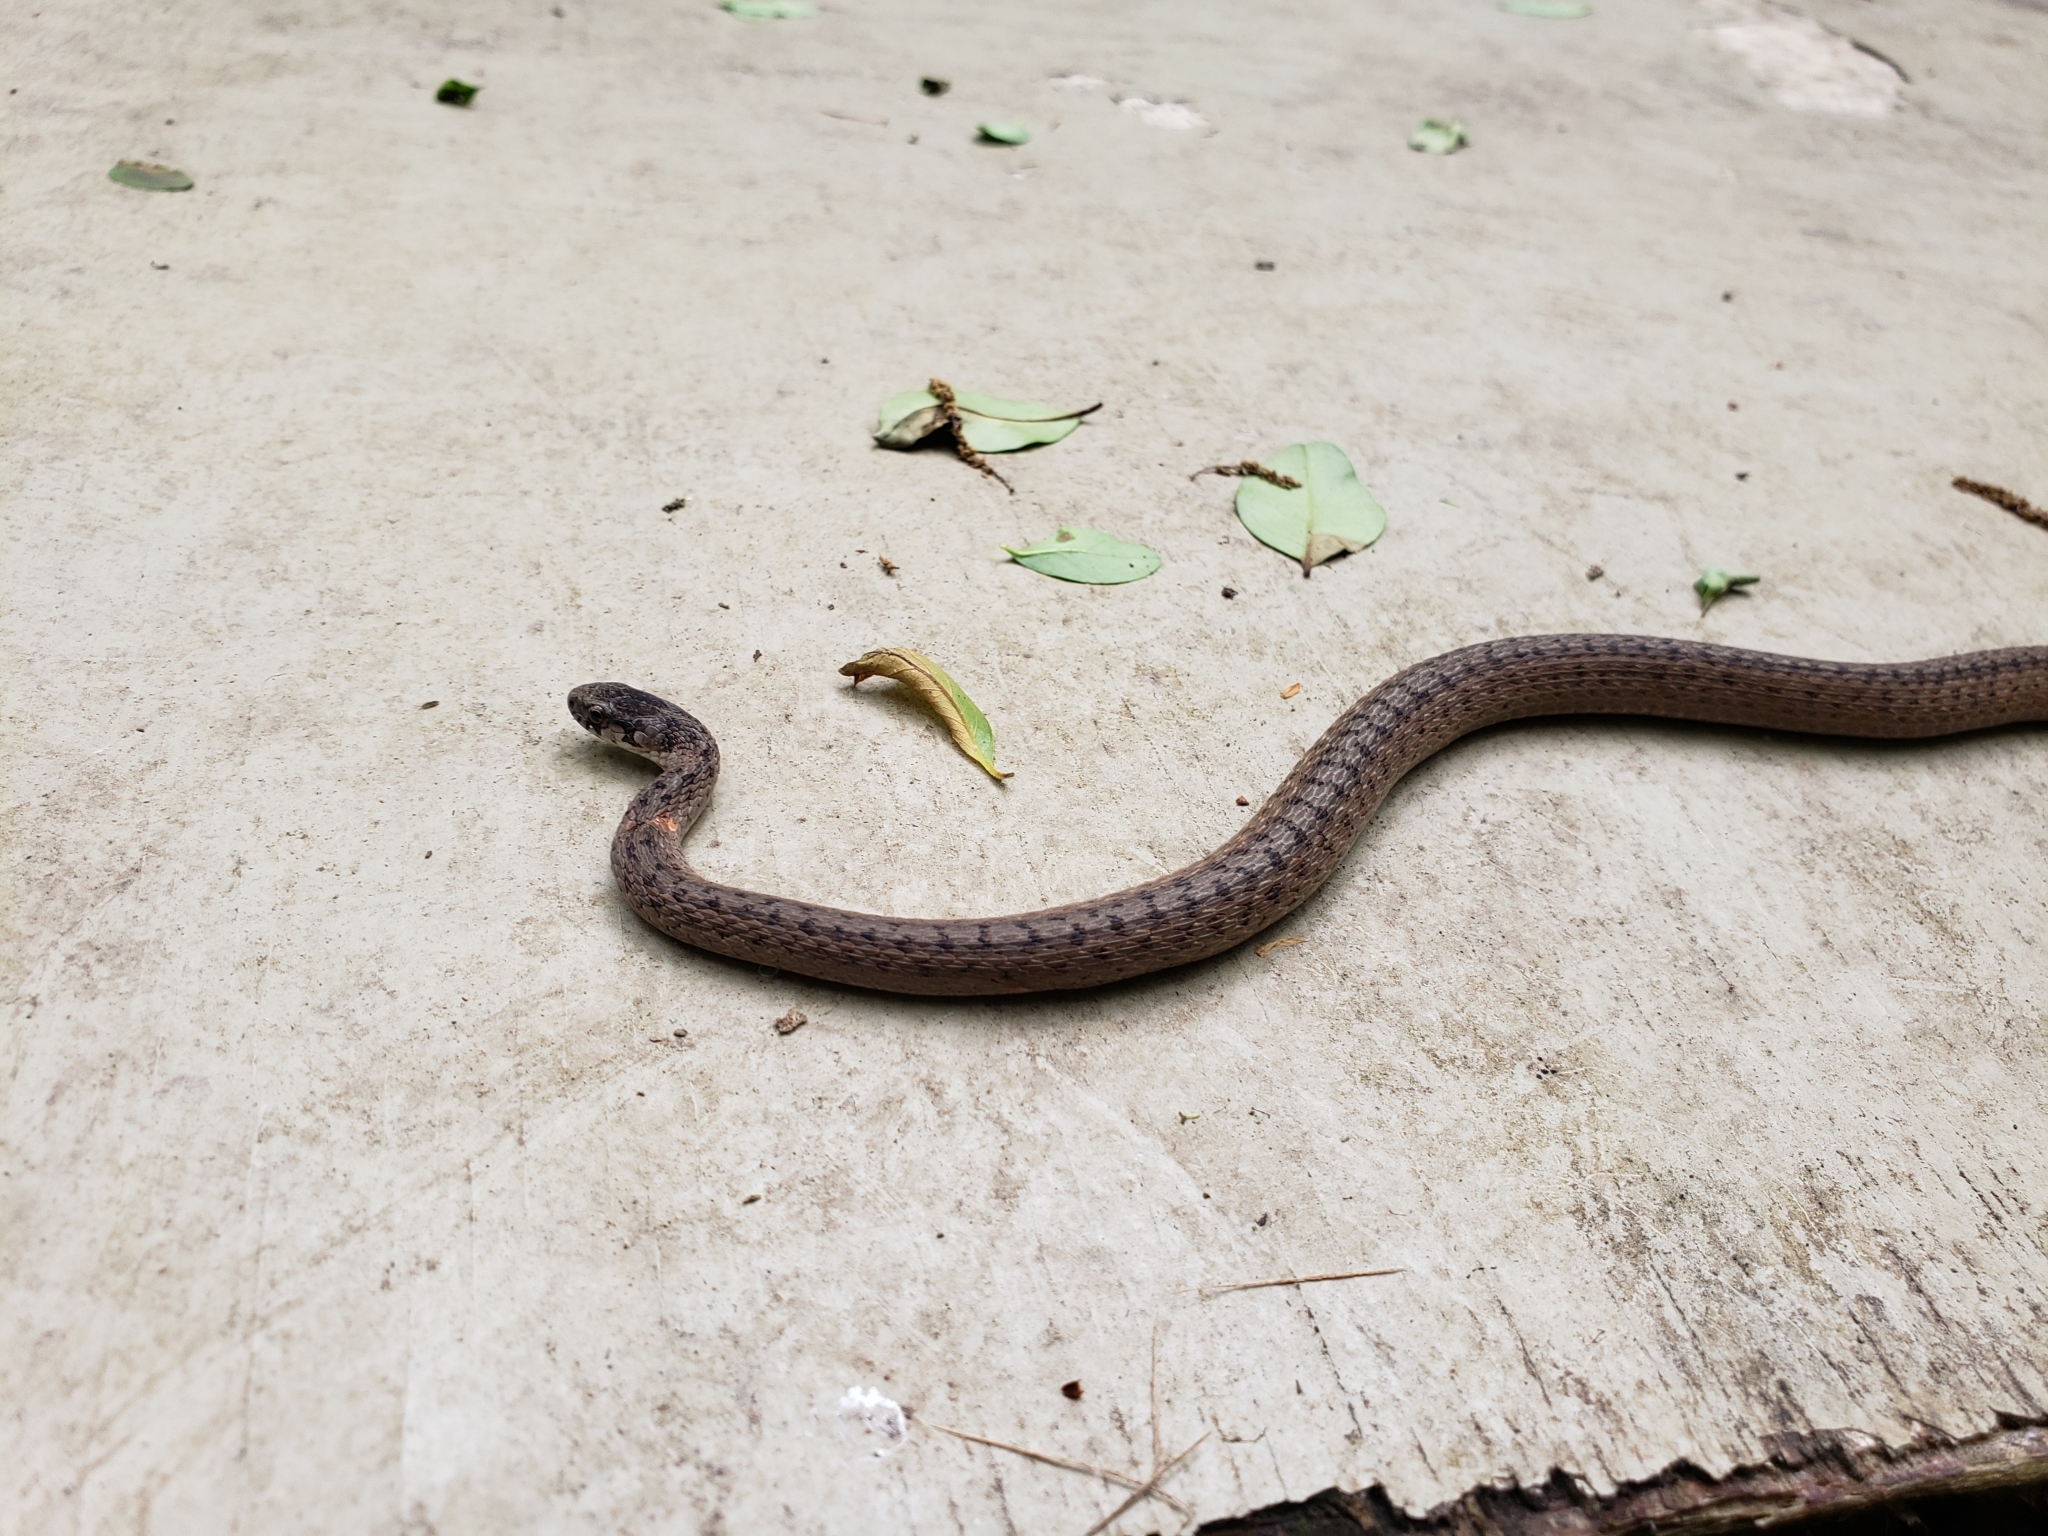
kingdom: Animalia
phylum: Chordata
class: Squamata
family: Colubridae
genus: Storeria
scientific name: Storeria dekayi
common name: (dekay’s) brown snake
